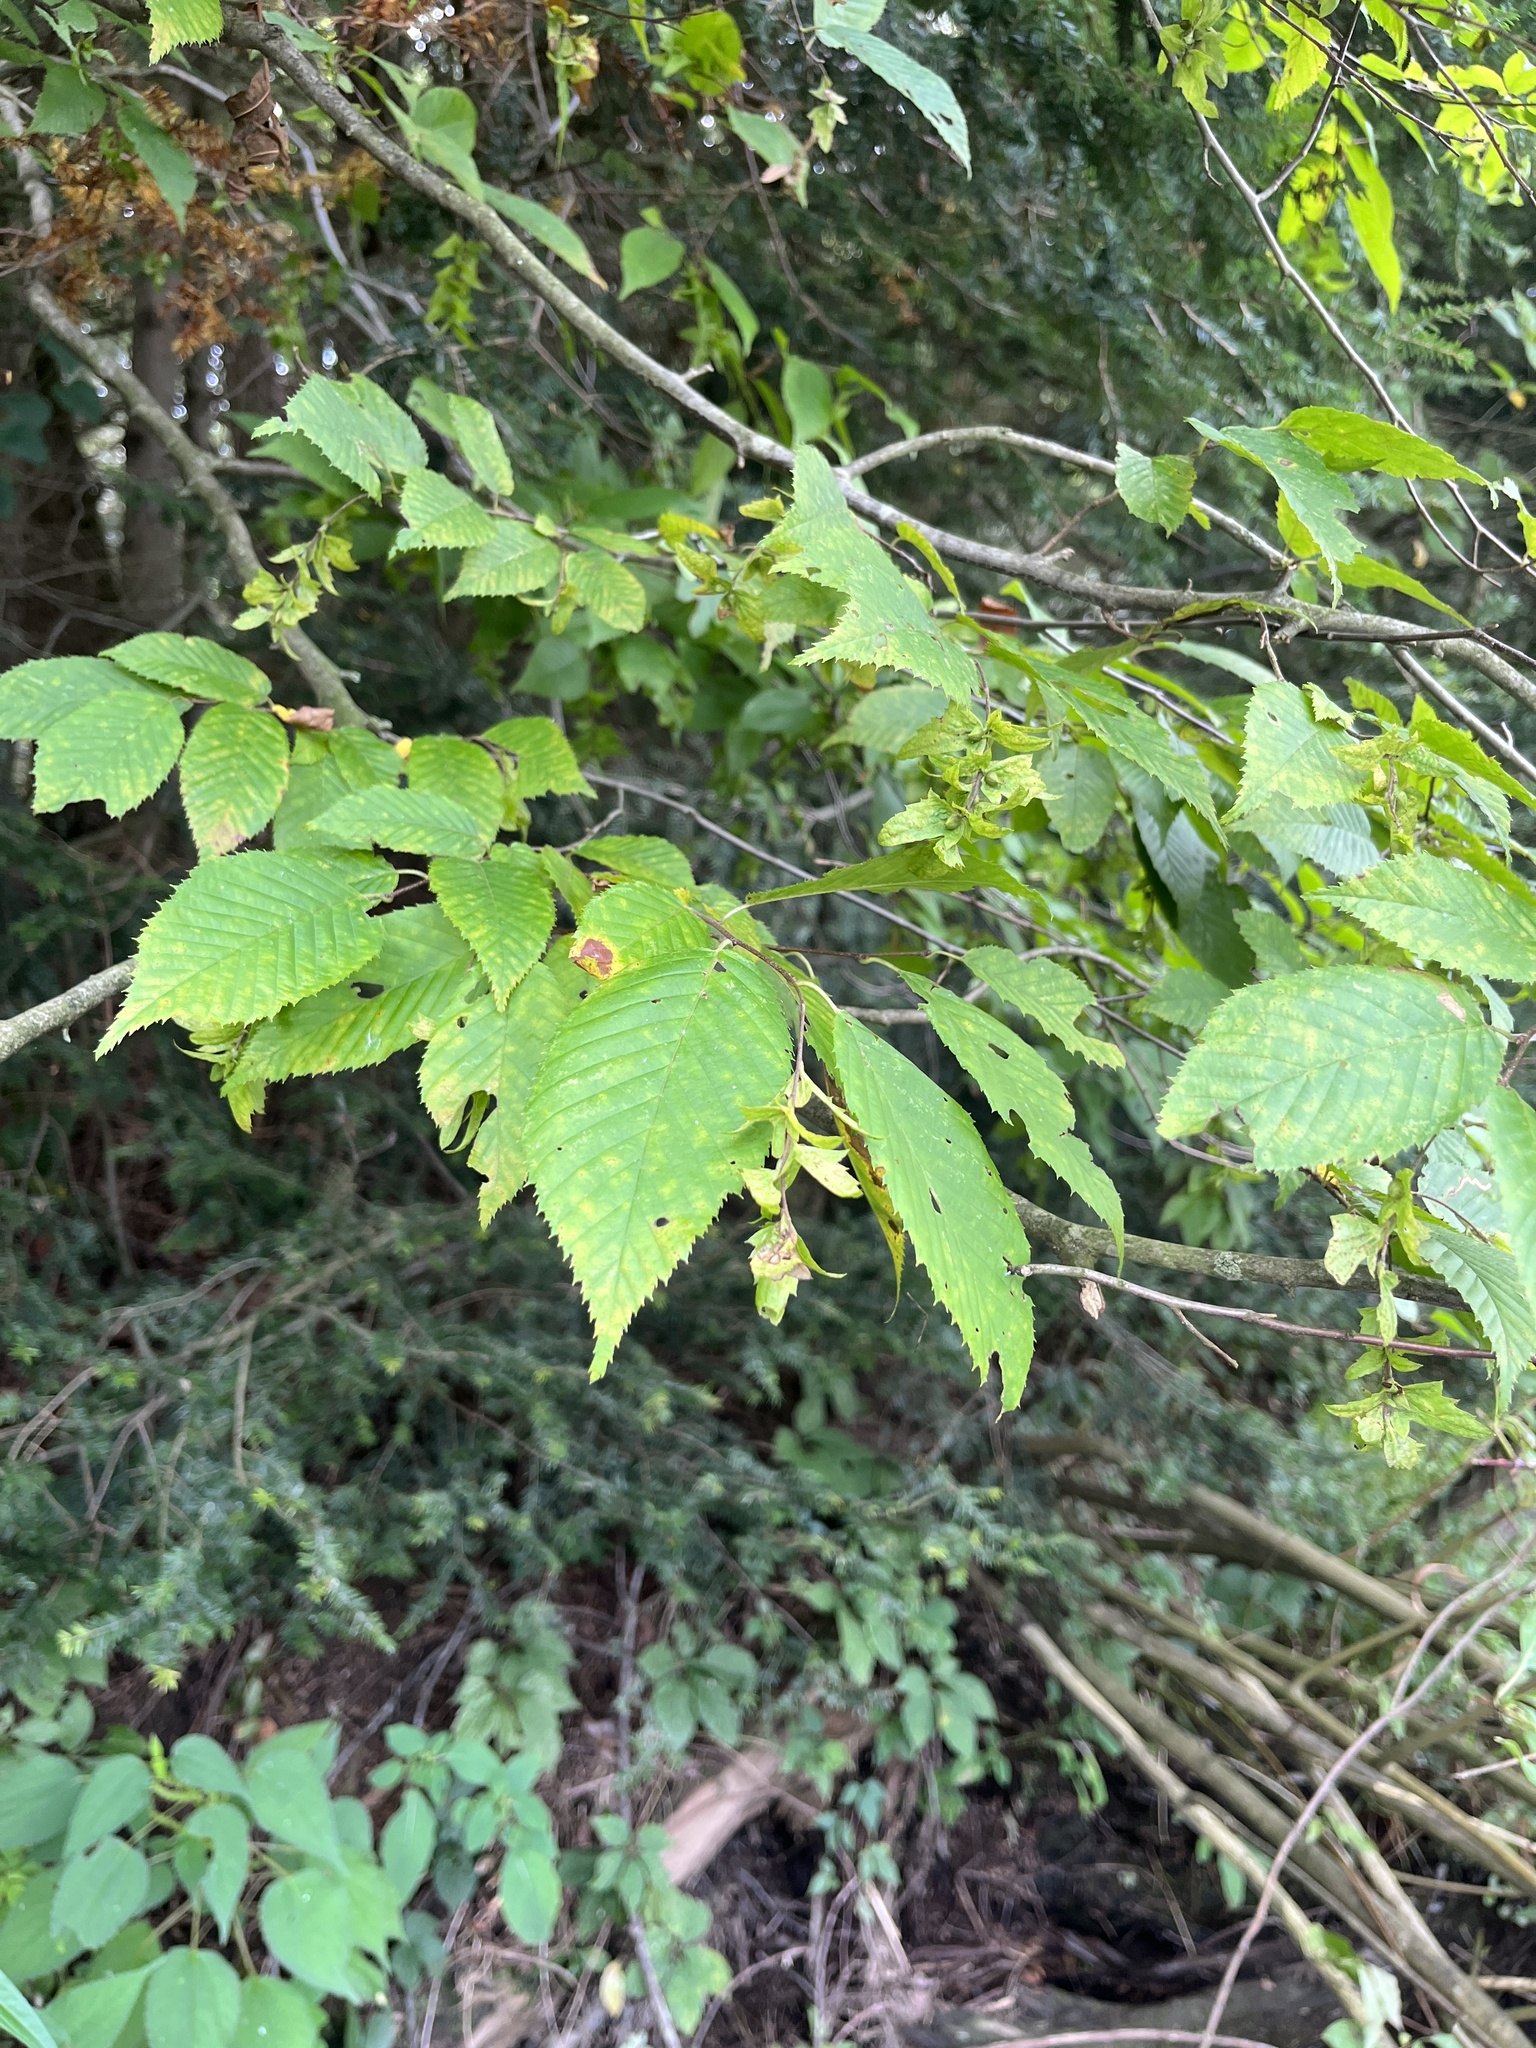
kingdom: Plantae
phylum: Tracheophyta
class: Magnoliopsida
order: Fagales
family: Betulaceae
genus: Carpinus
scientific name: Carpinus caroliniana
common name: American hornbeam
